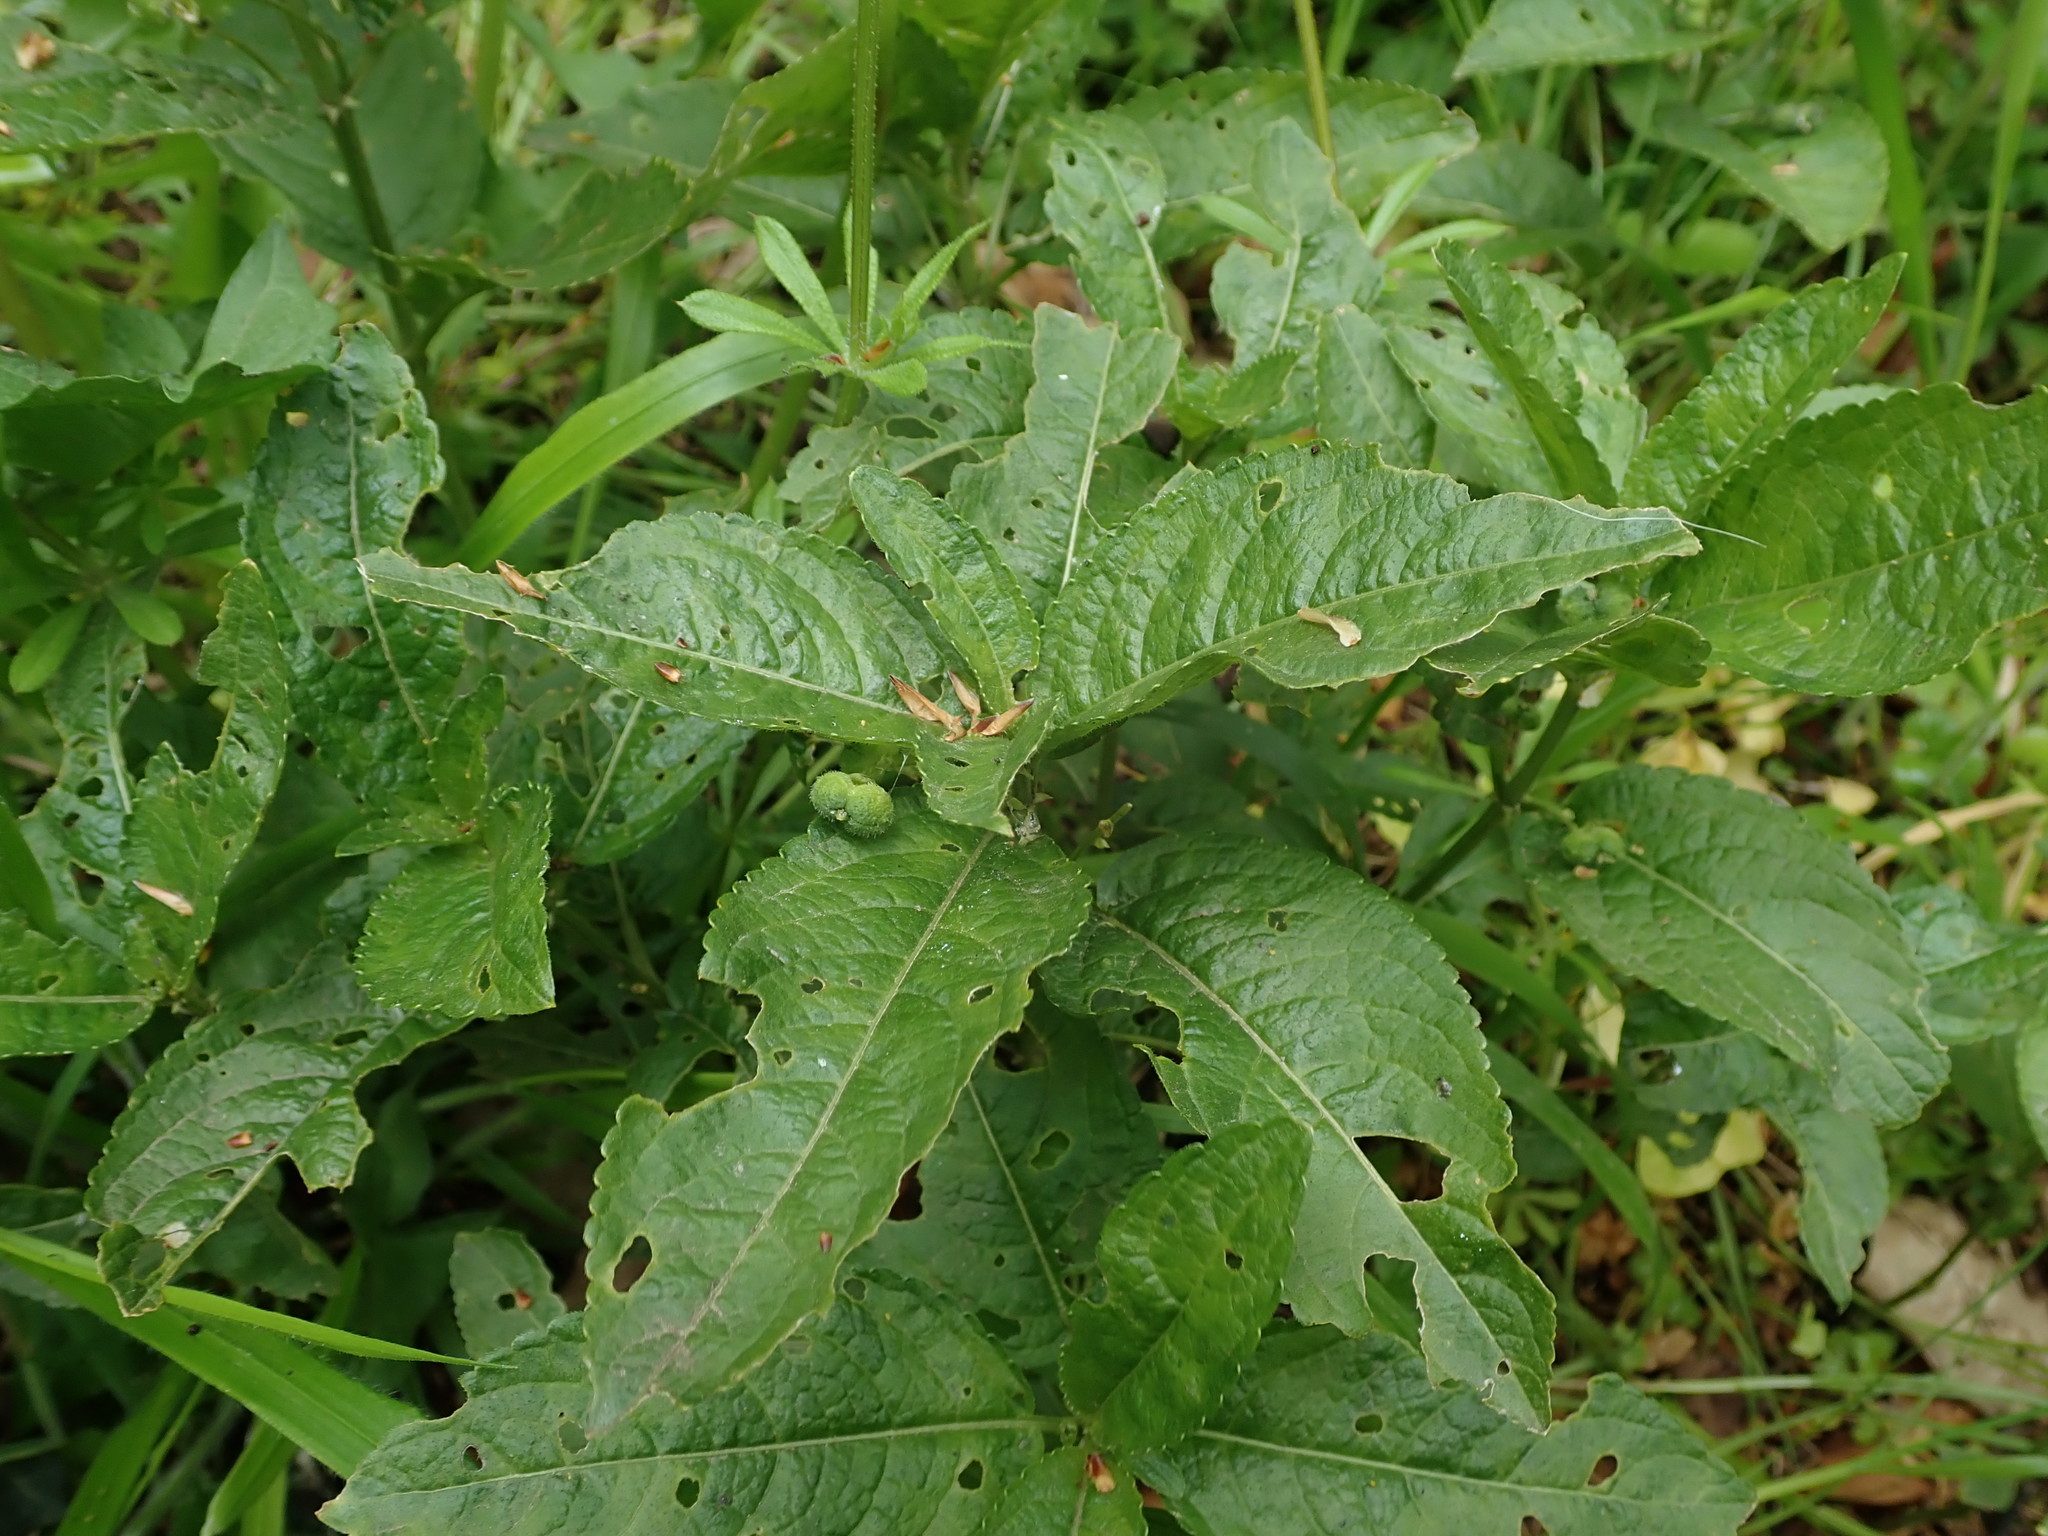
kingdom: Plantae
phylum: Tracheophyta
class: Magnoliopsida
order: Malpighiales
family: Euphorbiaceae
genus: Mercurialis
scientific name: Mercurialis perennis
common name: Dog mercury
